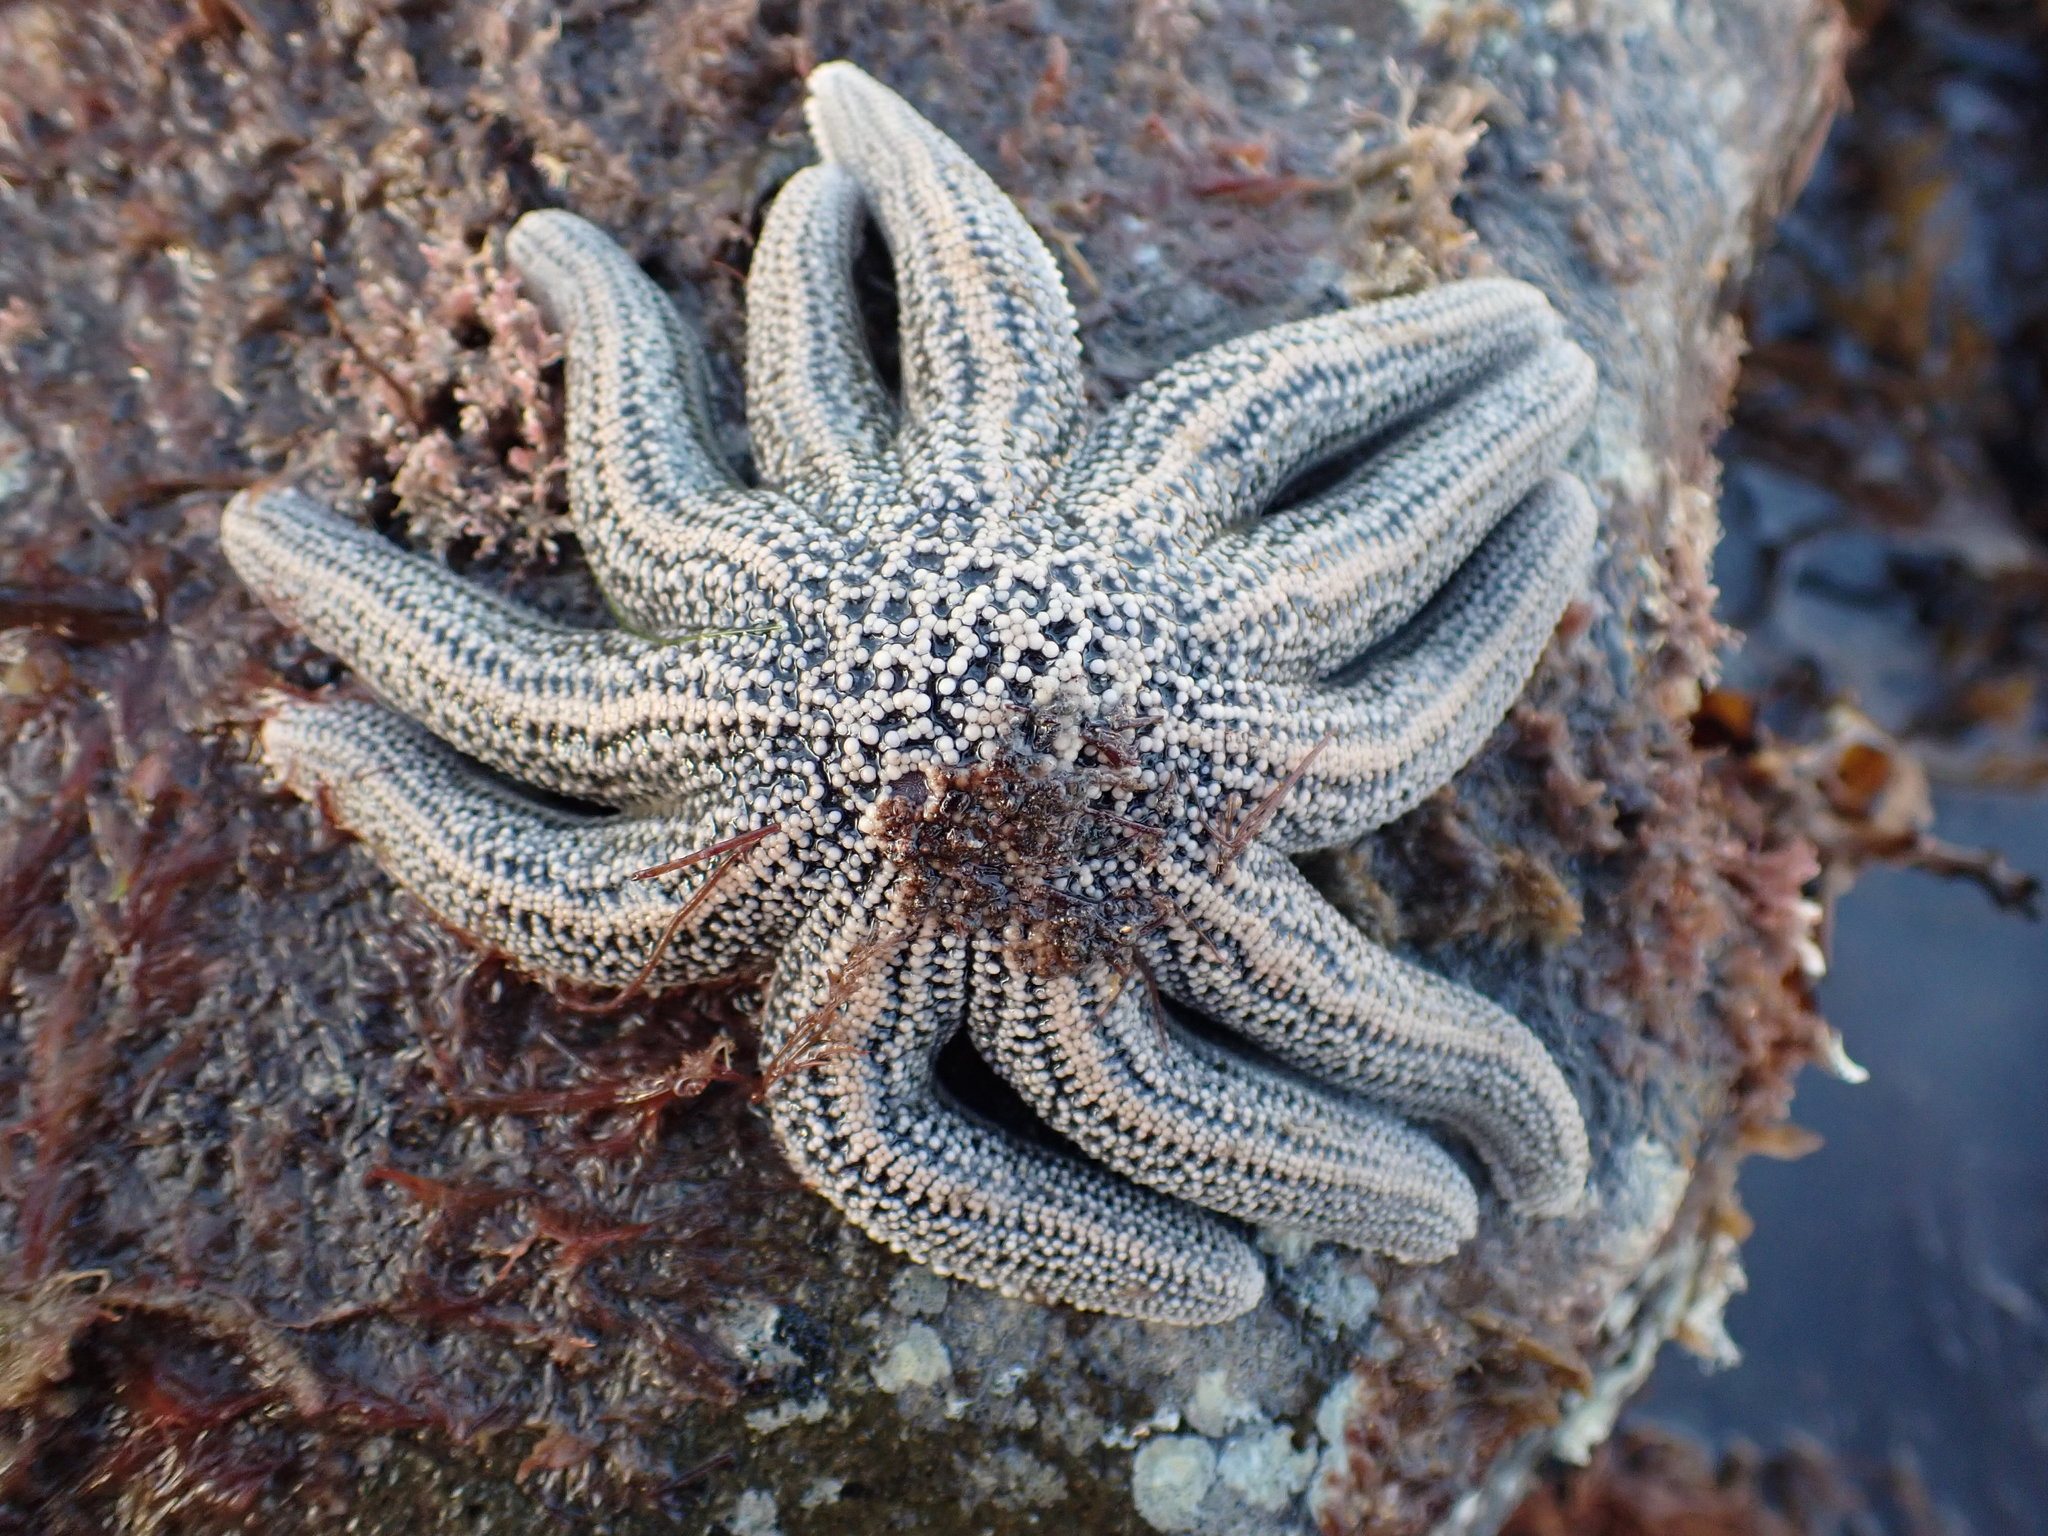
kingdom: Animalia
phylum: Echinodermata
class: Asteroidea
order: Forcipulatida
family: Stichasteridae
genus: Stichaster
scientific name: Stichaster australis
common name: Reef starfish
